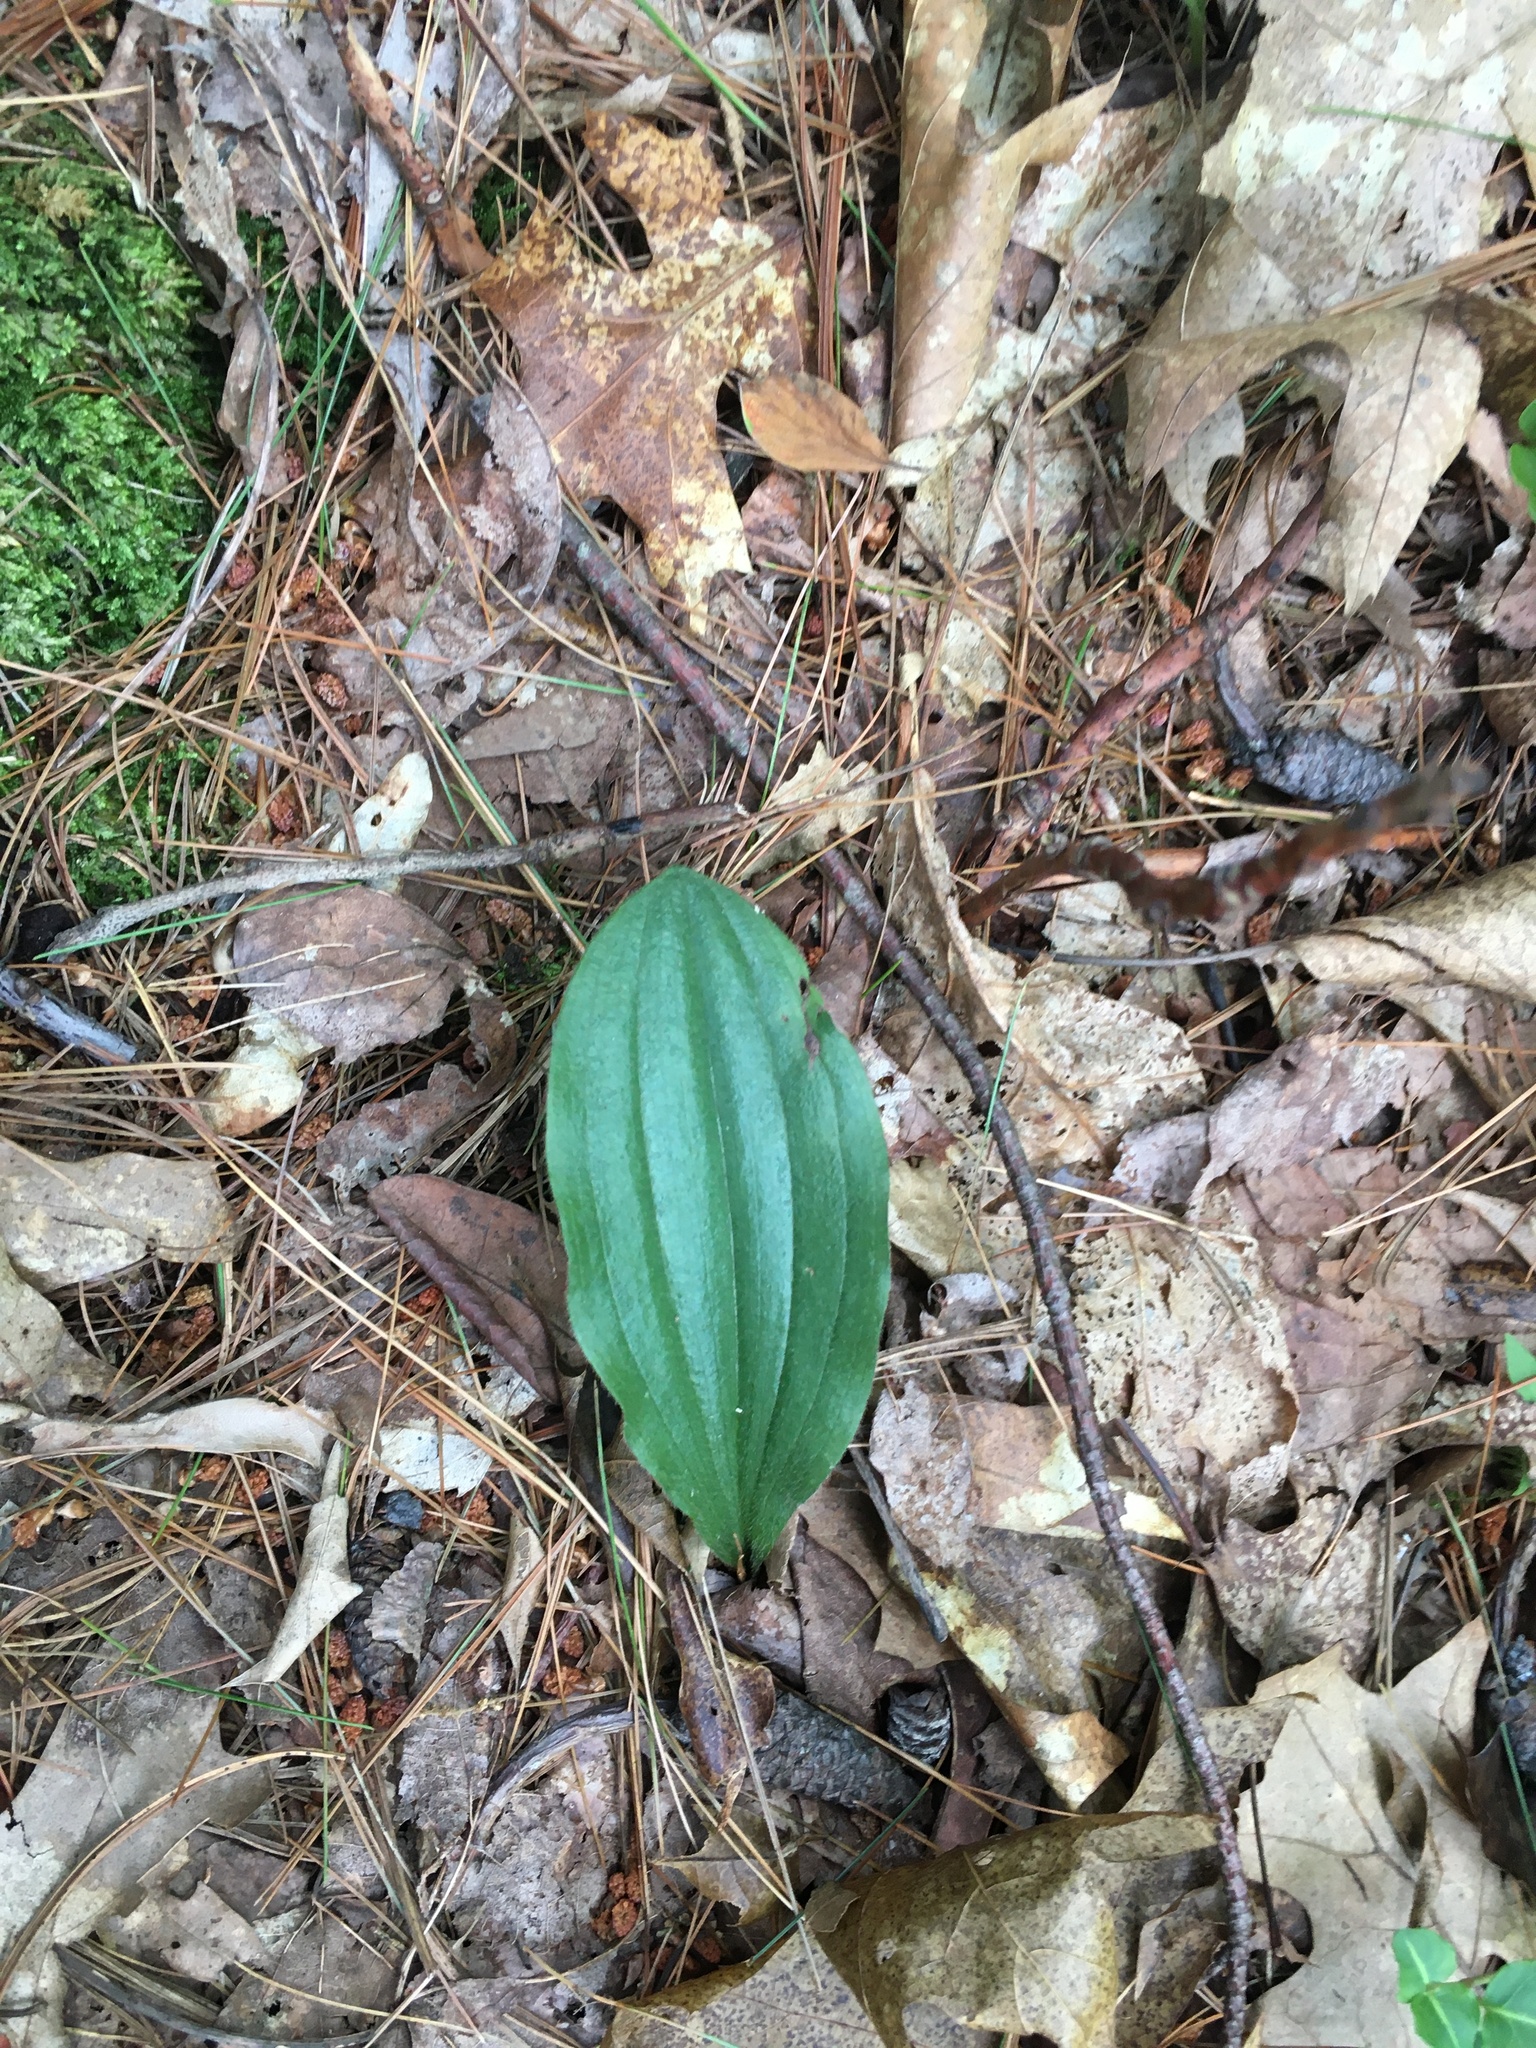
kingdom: Plantae
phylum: Tracheophyta
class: Liliopsida
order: Asparagales
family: Orchidaceae
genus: Cypripedium
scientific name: Cypripedium acaule
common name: Pink lady's-slipper
